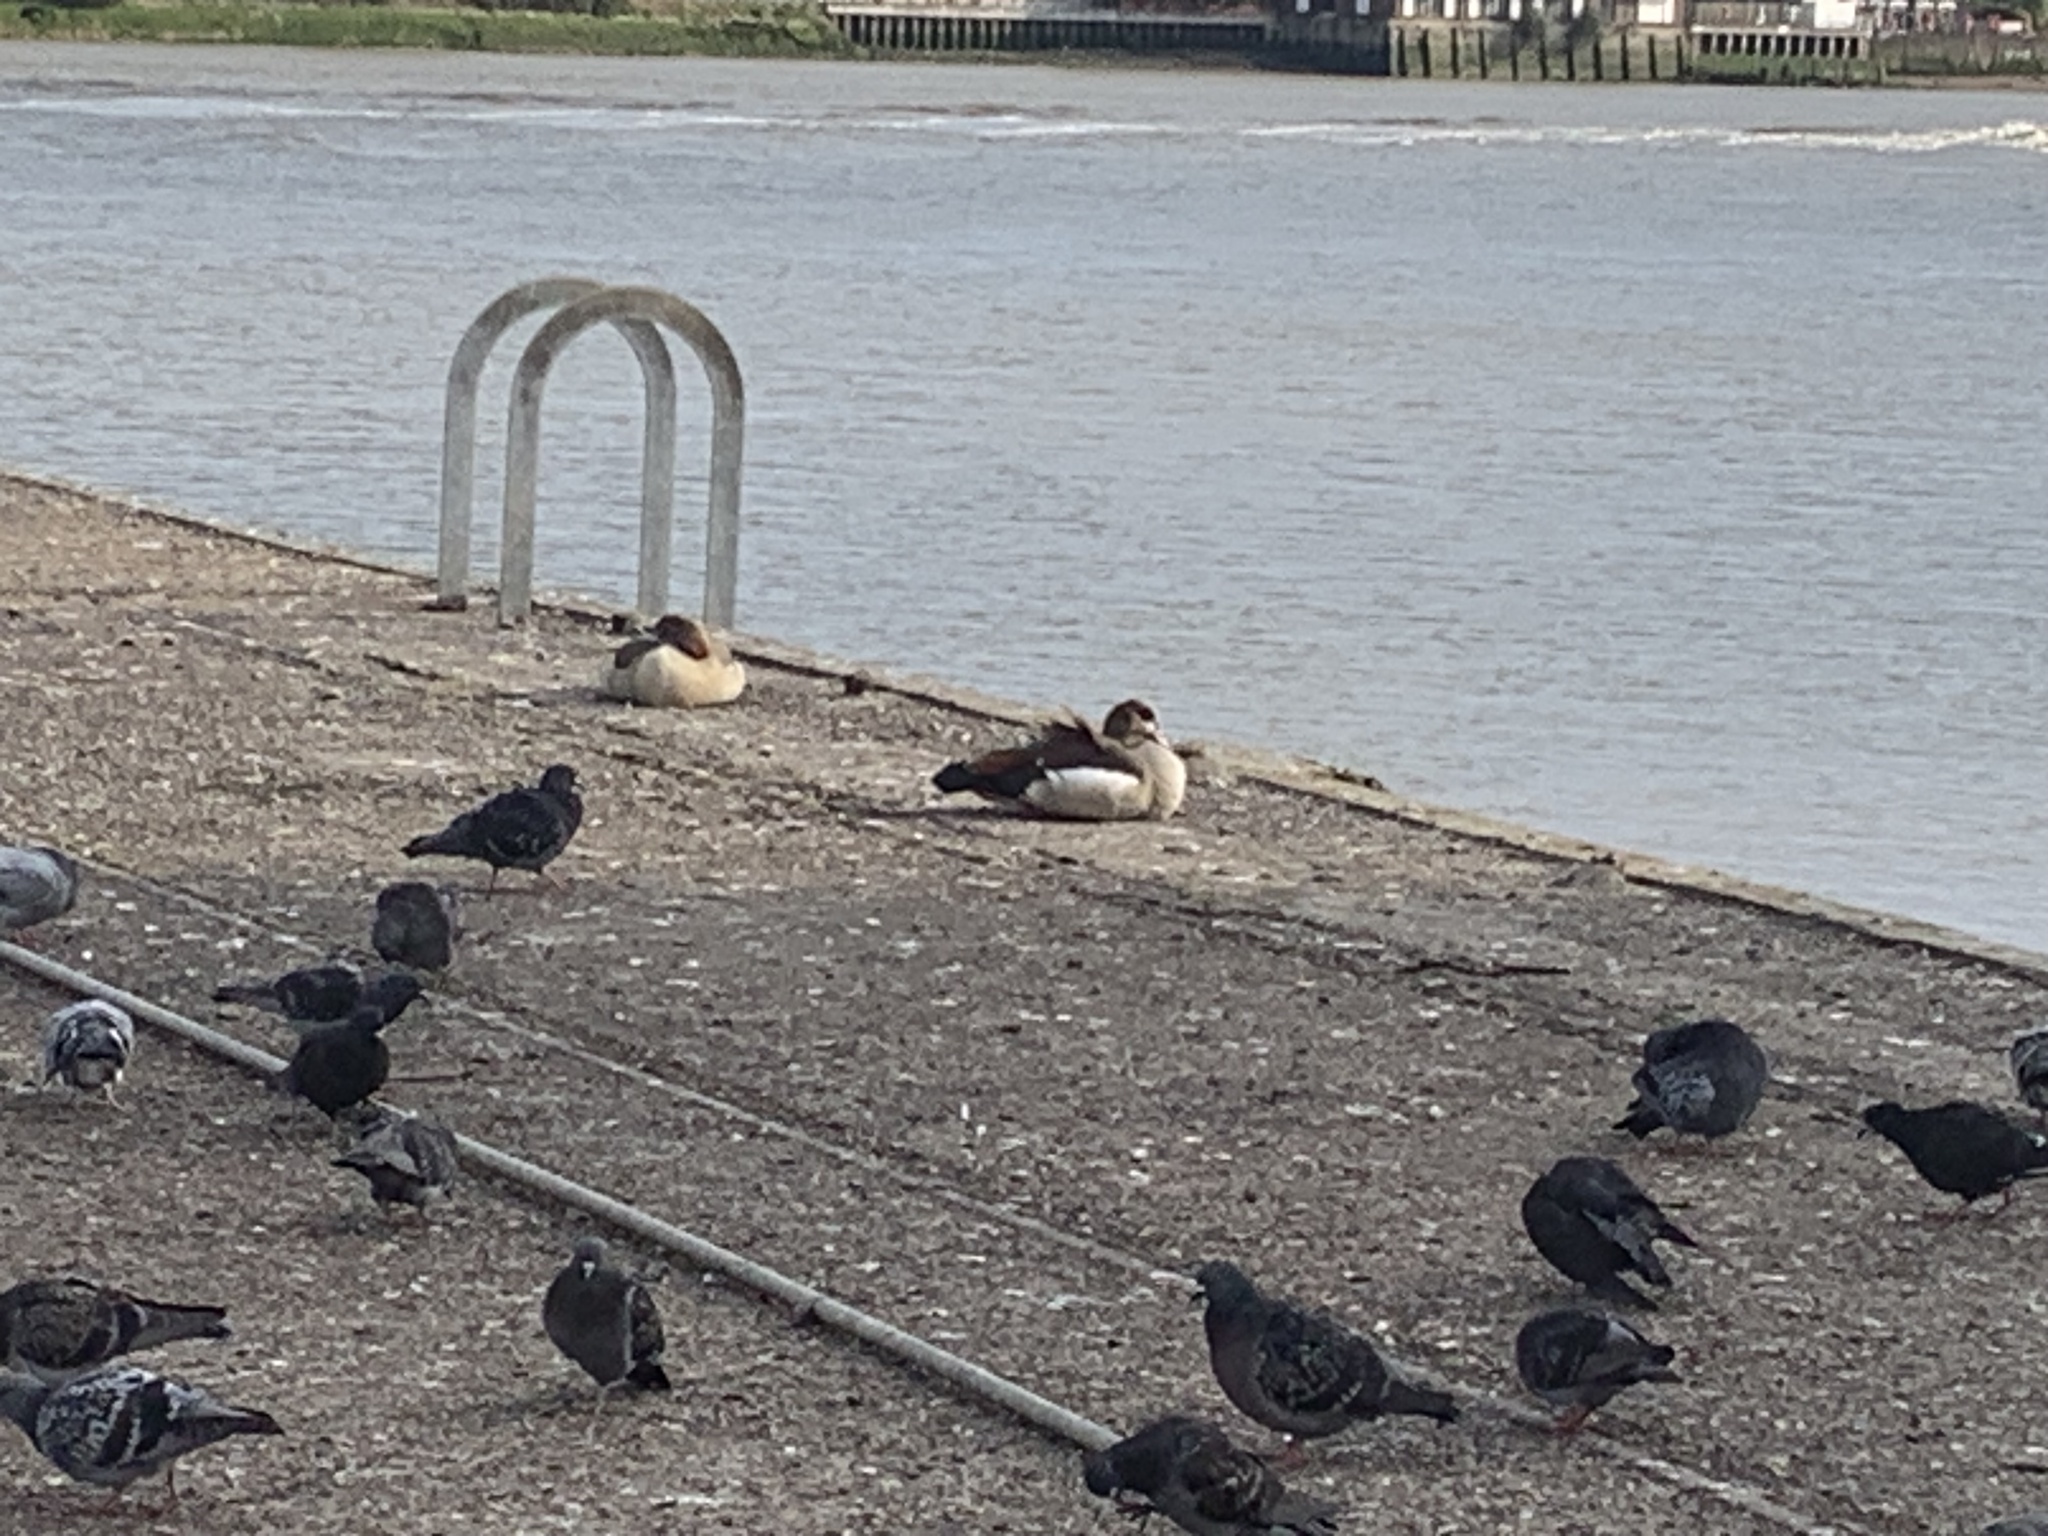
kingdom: Animalia
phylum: Chordata
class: Aves
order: Anseriformes
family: Anatidae
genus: Alopochen
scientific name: Alopochen aegyptiaca
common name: Egyptian goose
